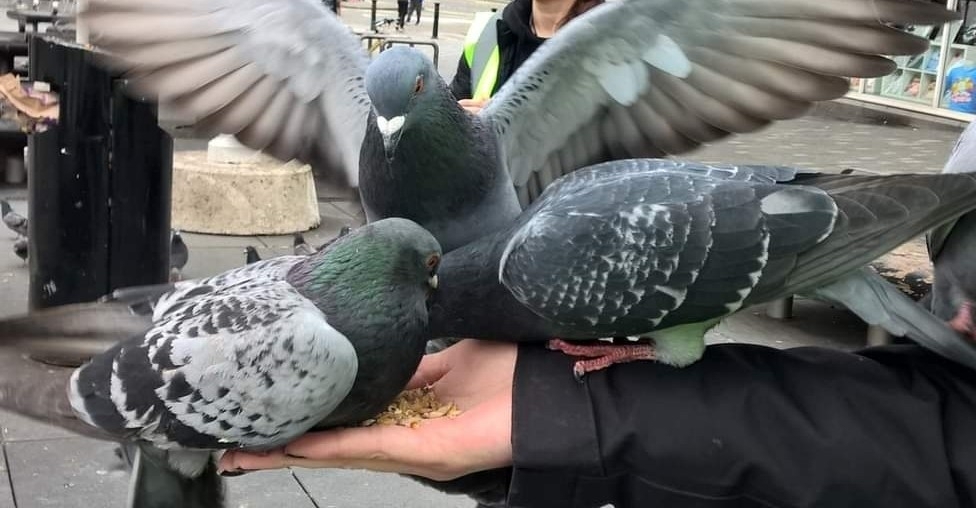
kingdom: Animalia
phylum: Chordata
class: Aves
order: Columbiformes
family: Columbidae
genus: Columba
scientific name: Columba livia
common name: Rock pigeon
